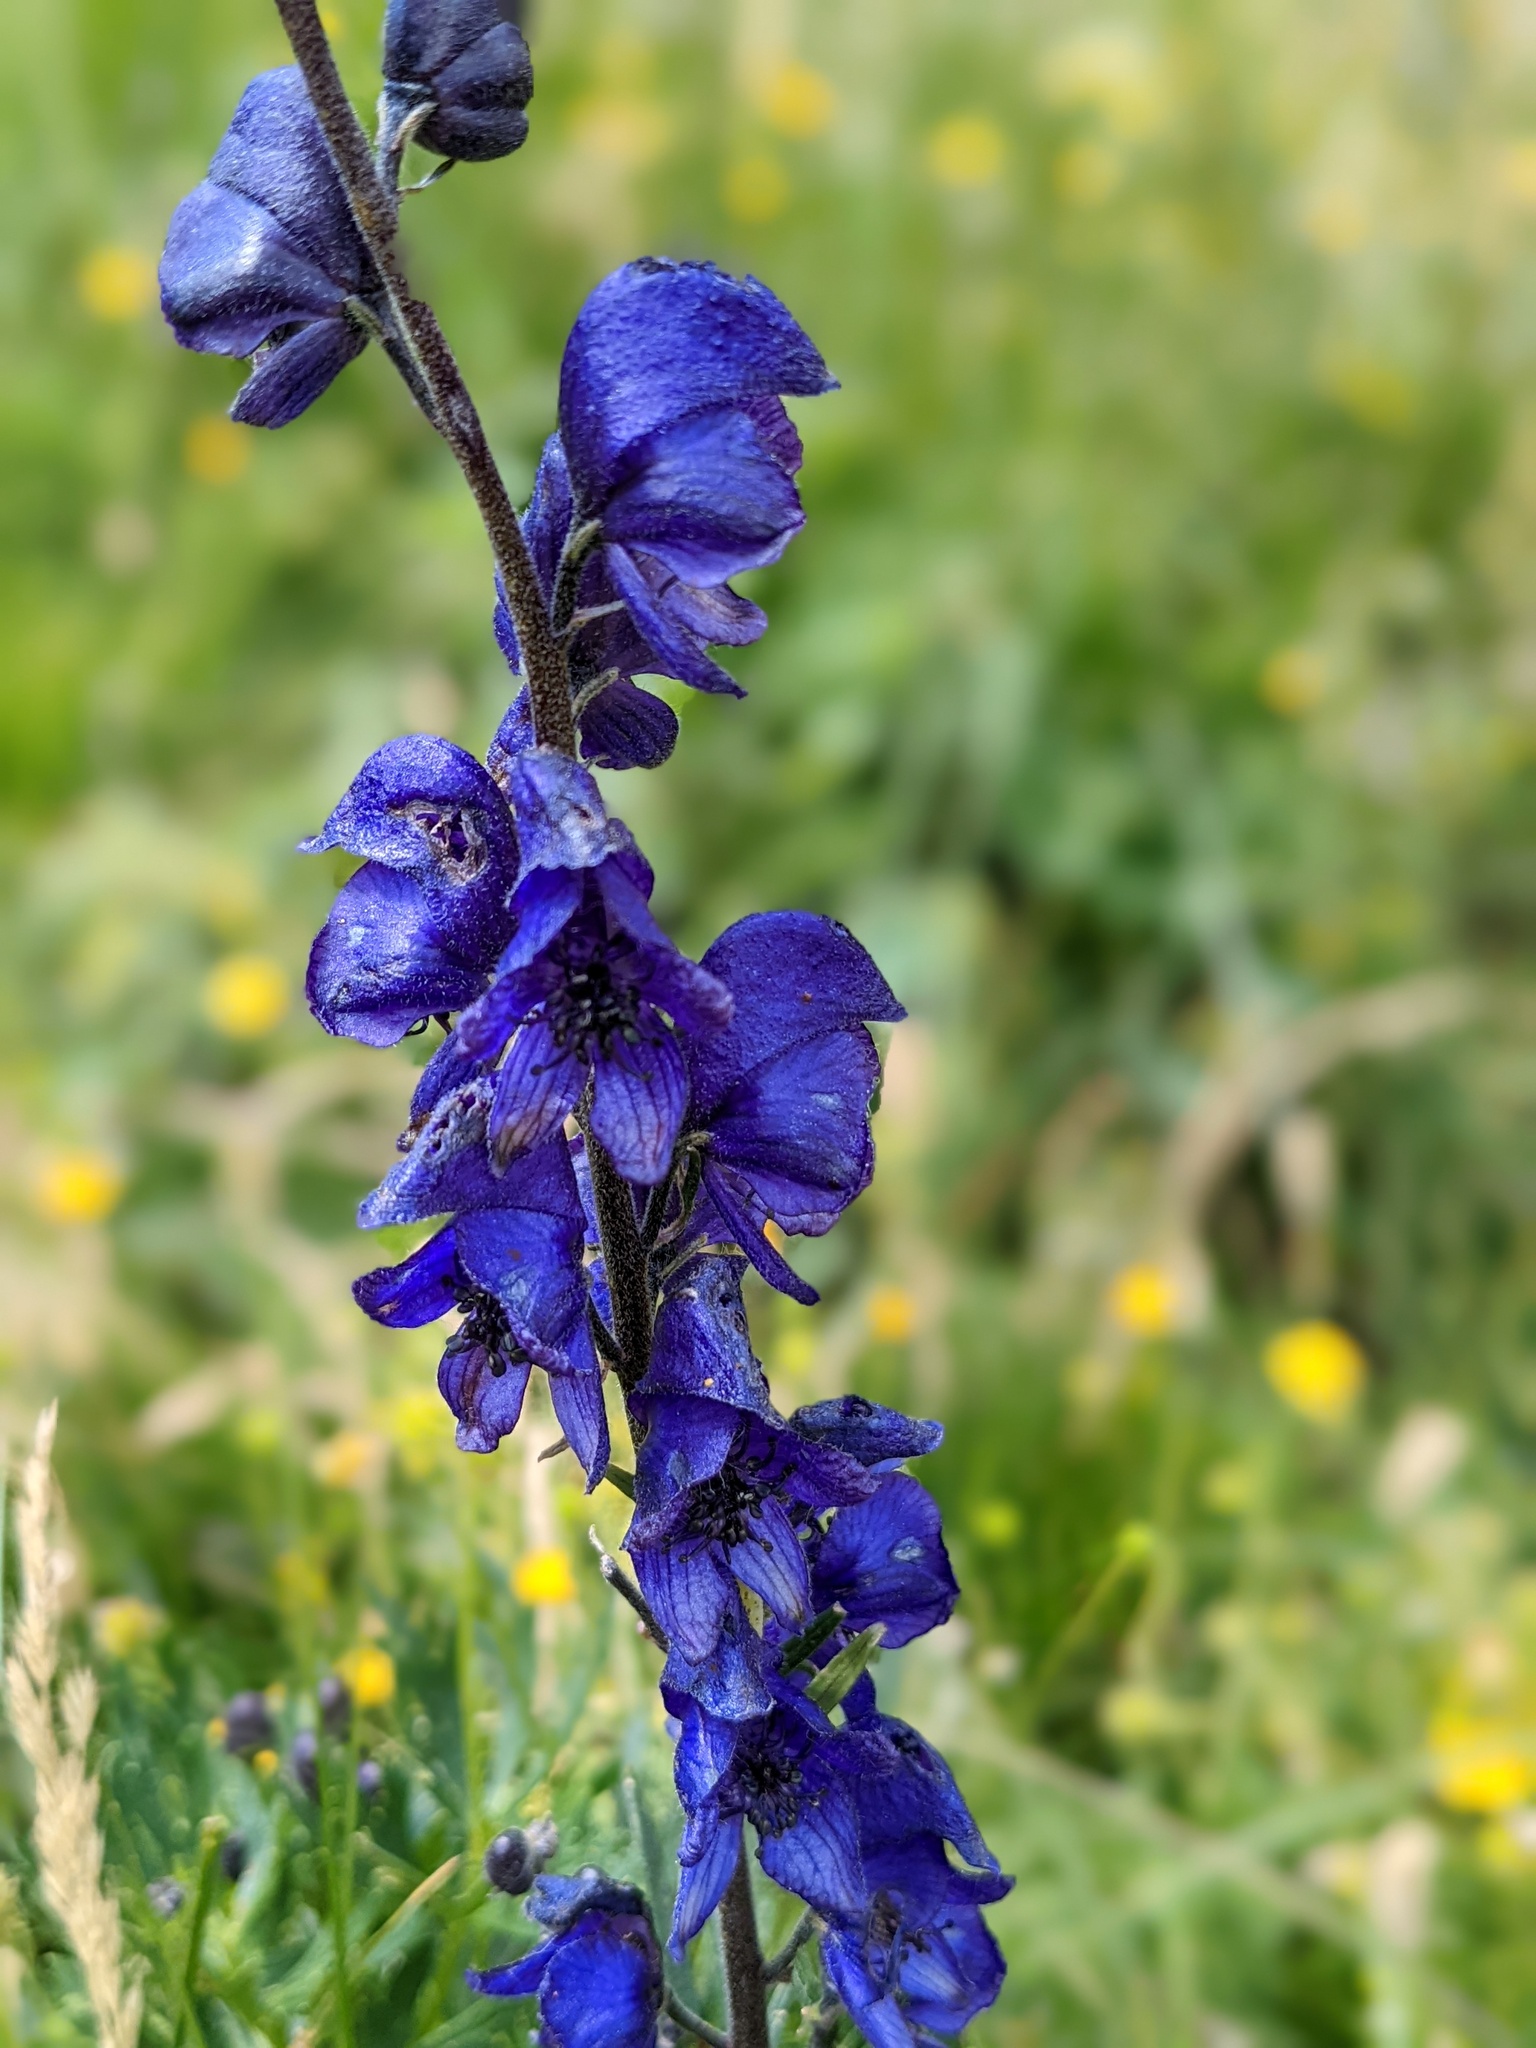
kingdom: Plantae
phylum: Tracheophyta
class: Magnoliopsida
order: Ranunculales
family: Ranunculaceae
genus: Aconitum
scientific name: Aconitum napellus
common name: Garden monkshood
